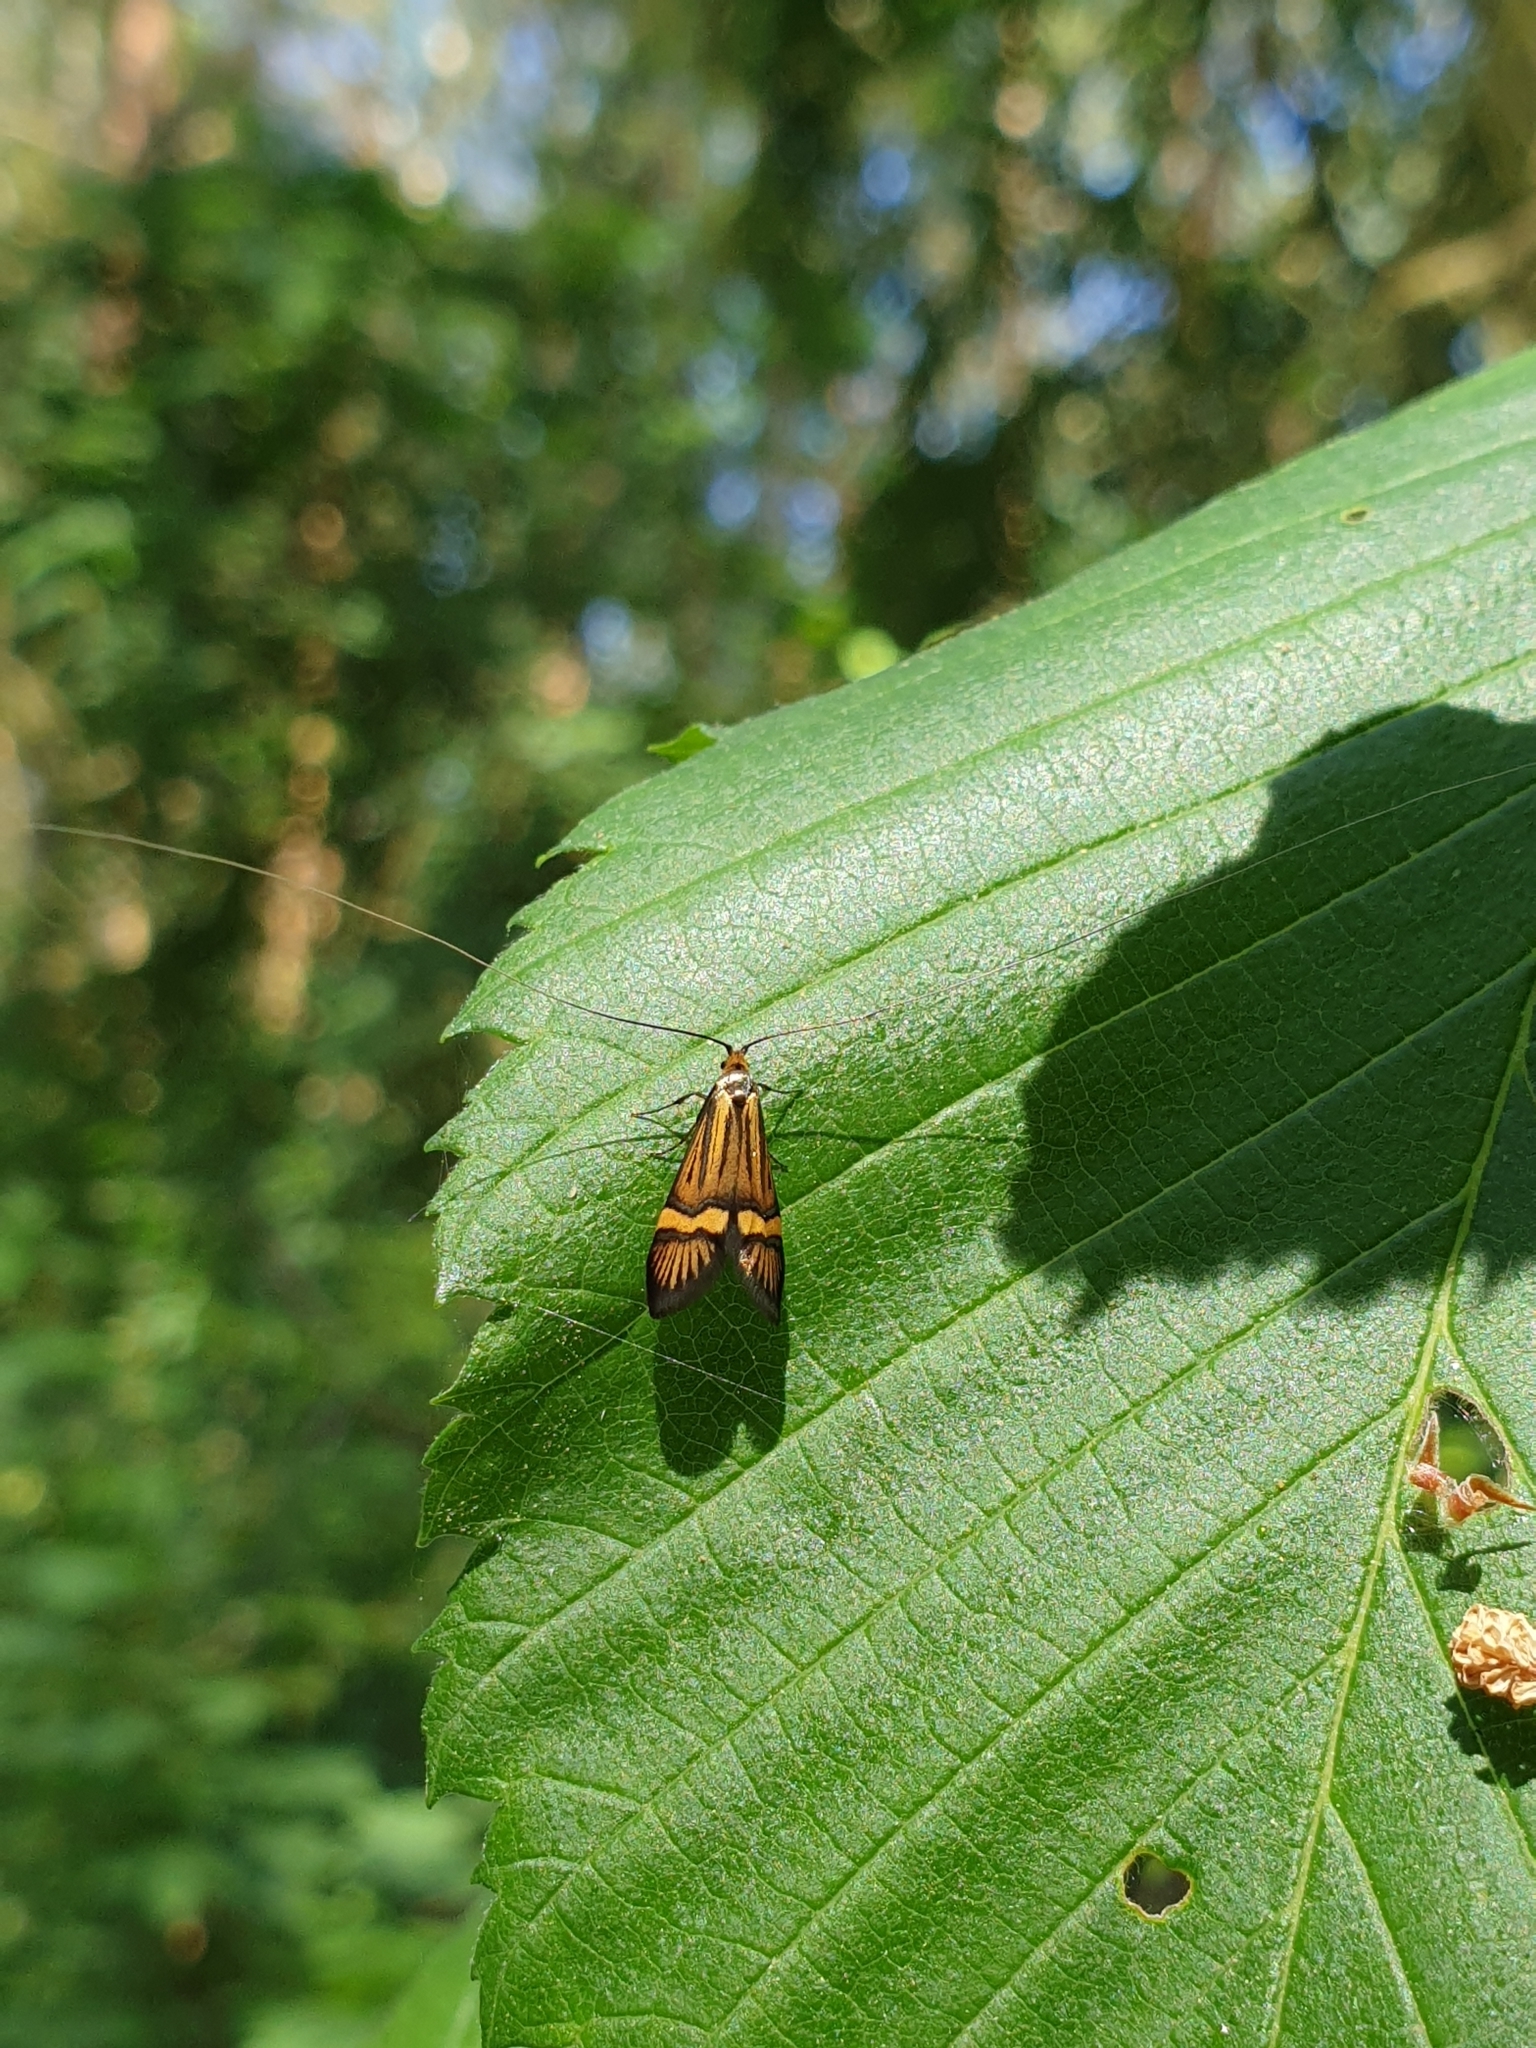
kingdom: Animalia
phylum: Arthropoda
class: Insecta
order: Lepidoptera
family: Adelidae
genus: Nemophora
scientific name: Nemophora degeerella
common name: Yellow-barred long-horn
